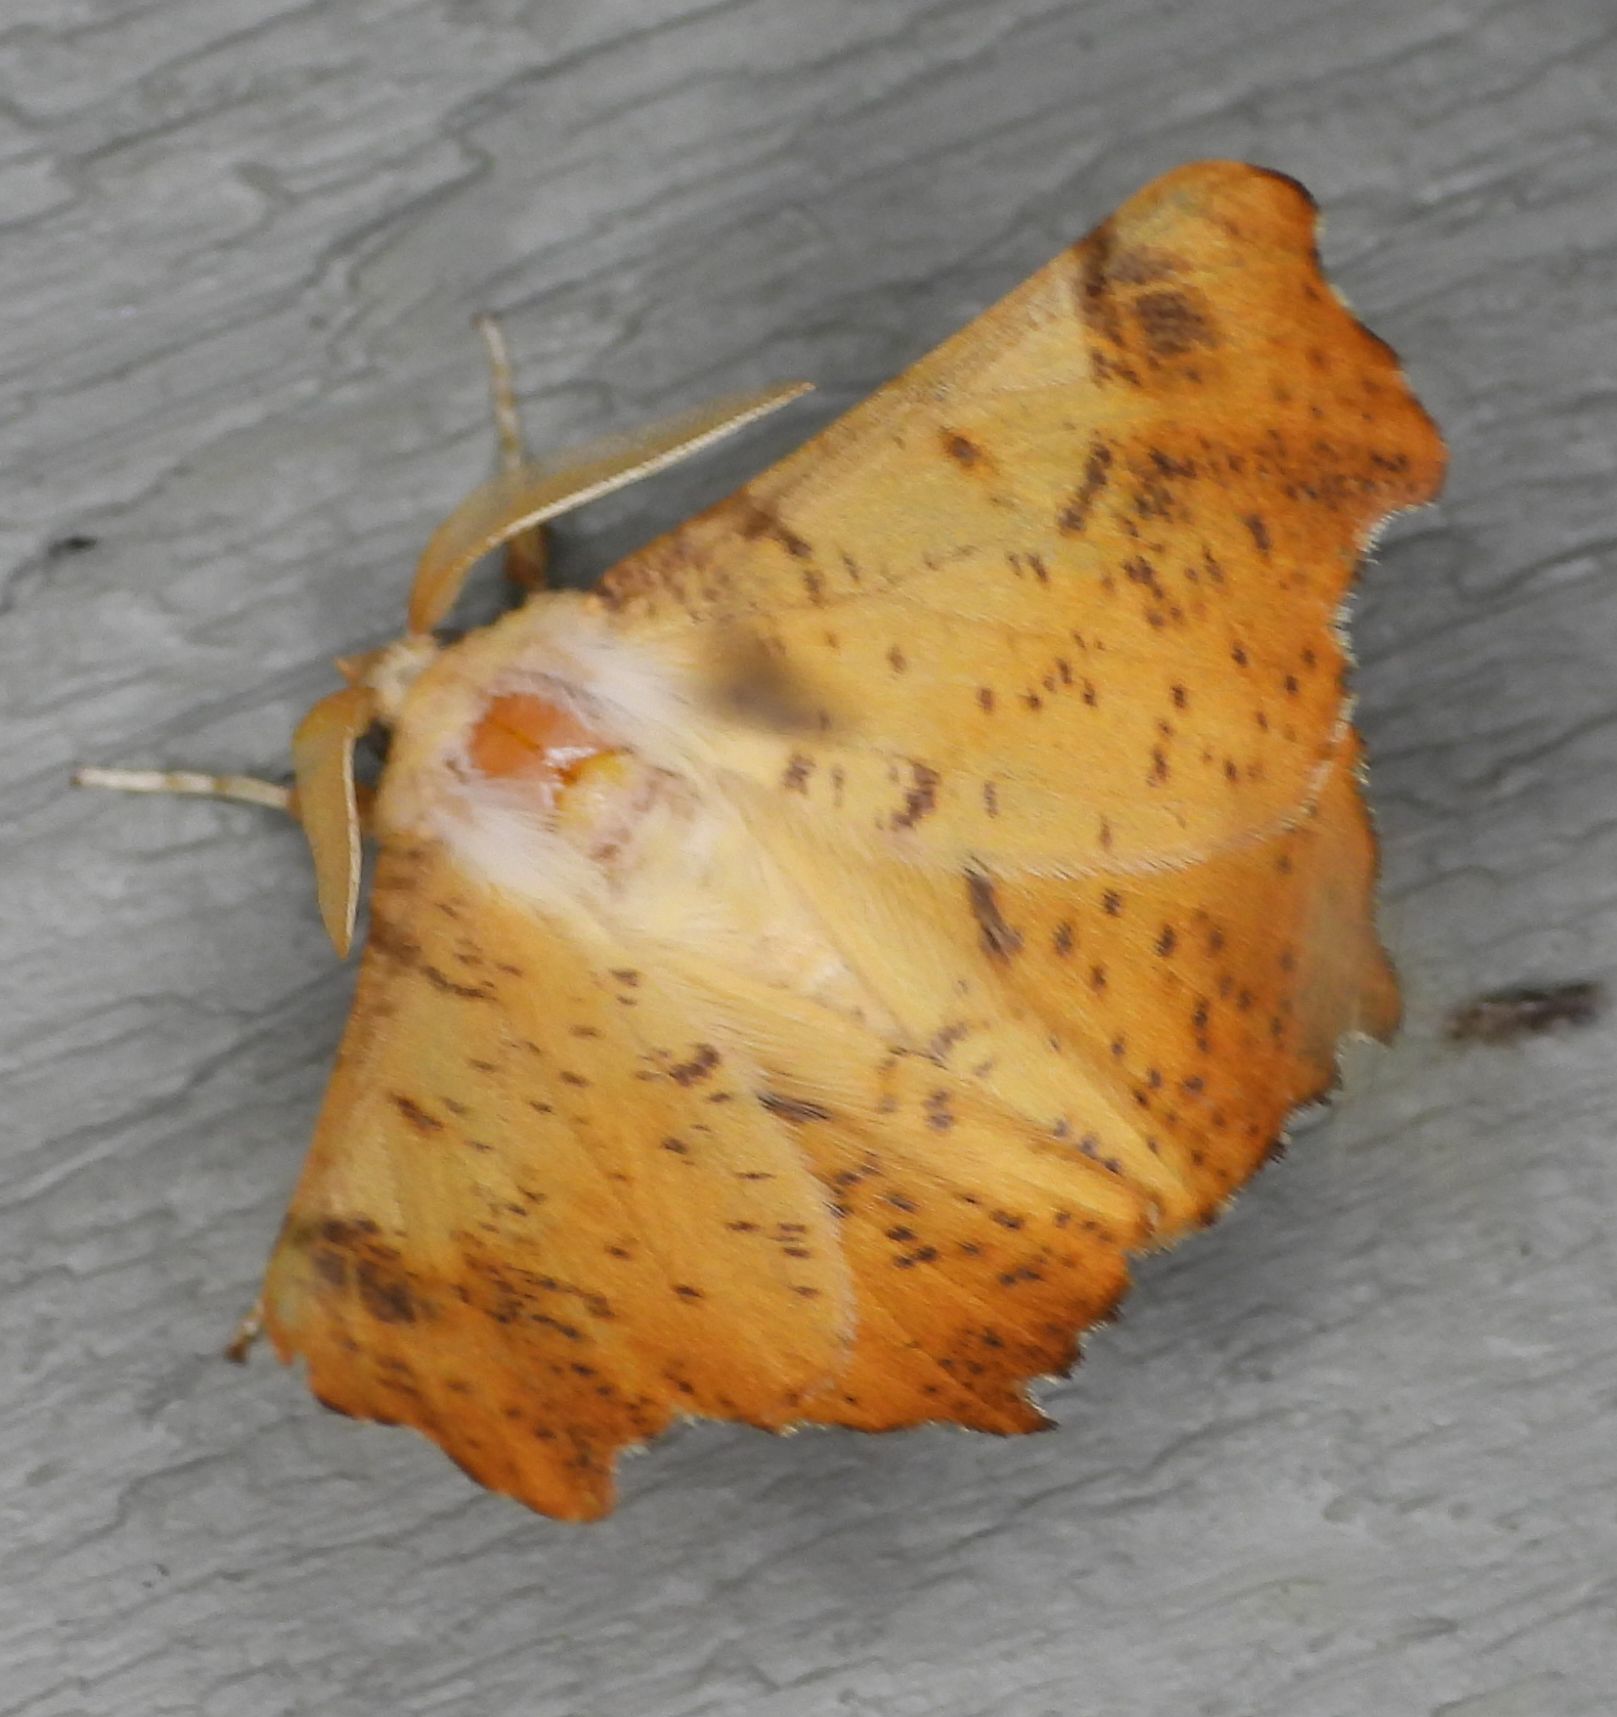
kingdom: Animalia
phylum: Arthropoda
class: Insecta
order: Lepidoptera
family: Geometridae
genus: Ennomos
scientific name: Ennomos magnaria
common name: Maple spanworm
